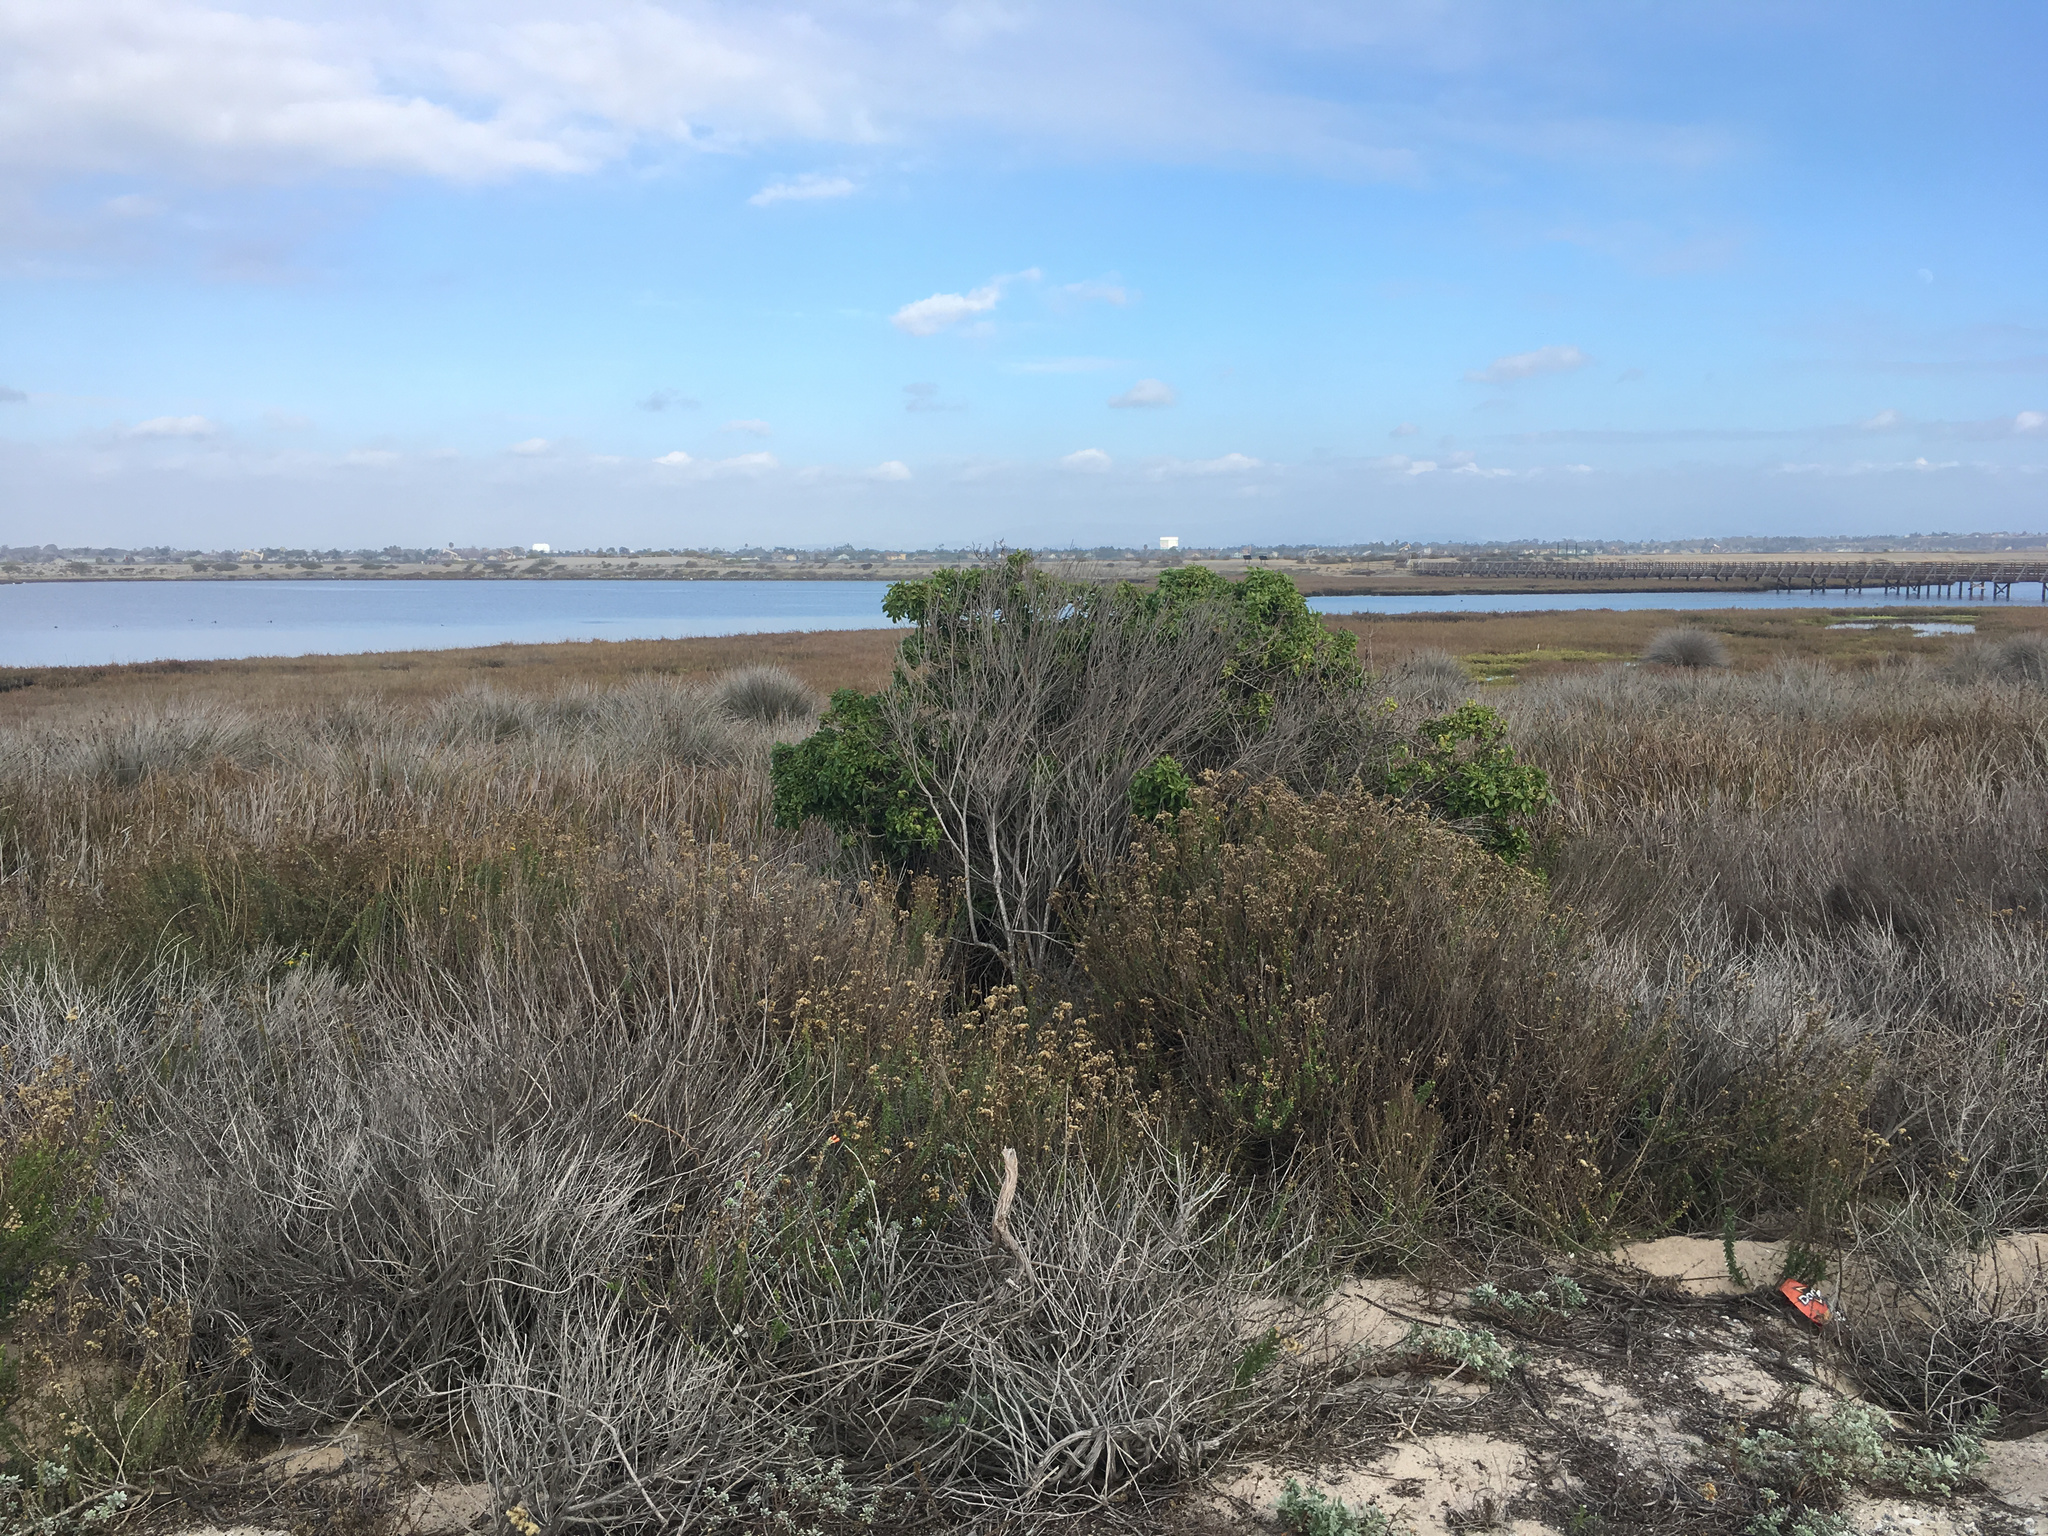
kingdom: Plantae
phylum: Tracheophyta
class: Magnoliopsida
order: Lamiales
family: Scrophulariaceae
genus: Myoporum
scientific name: Myoporum laetum
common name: Ngaio tree
